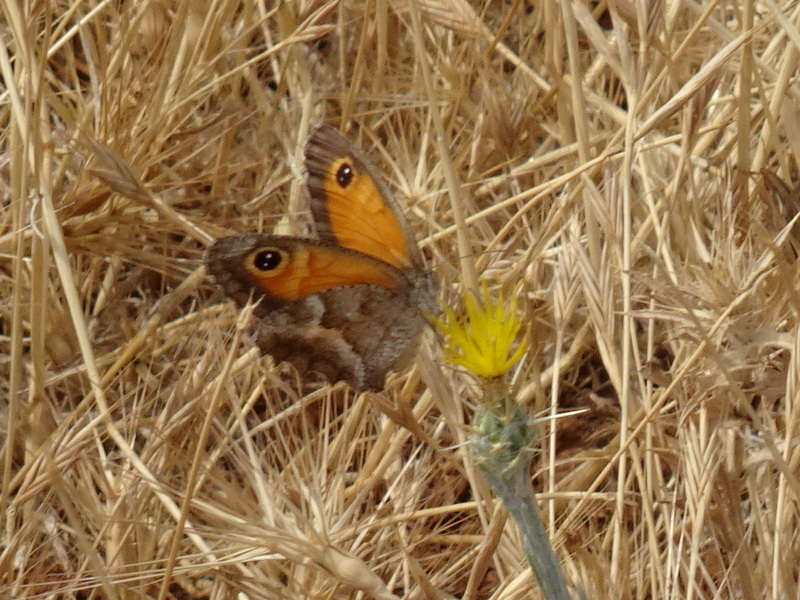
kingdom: Animalia
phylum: Arthropoda
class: Insecta
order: Lepidoptera
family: Nymphalidae
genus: Pyronia
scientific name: Pyronia cecilia
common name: Southern gatekeeper
